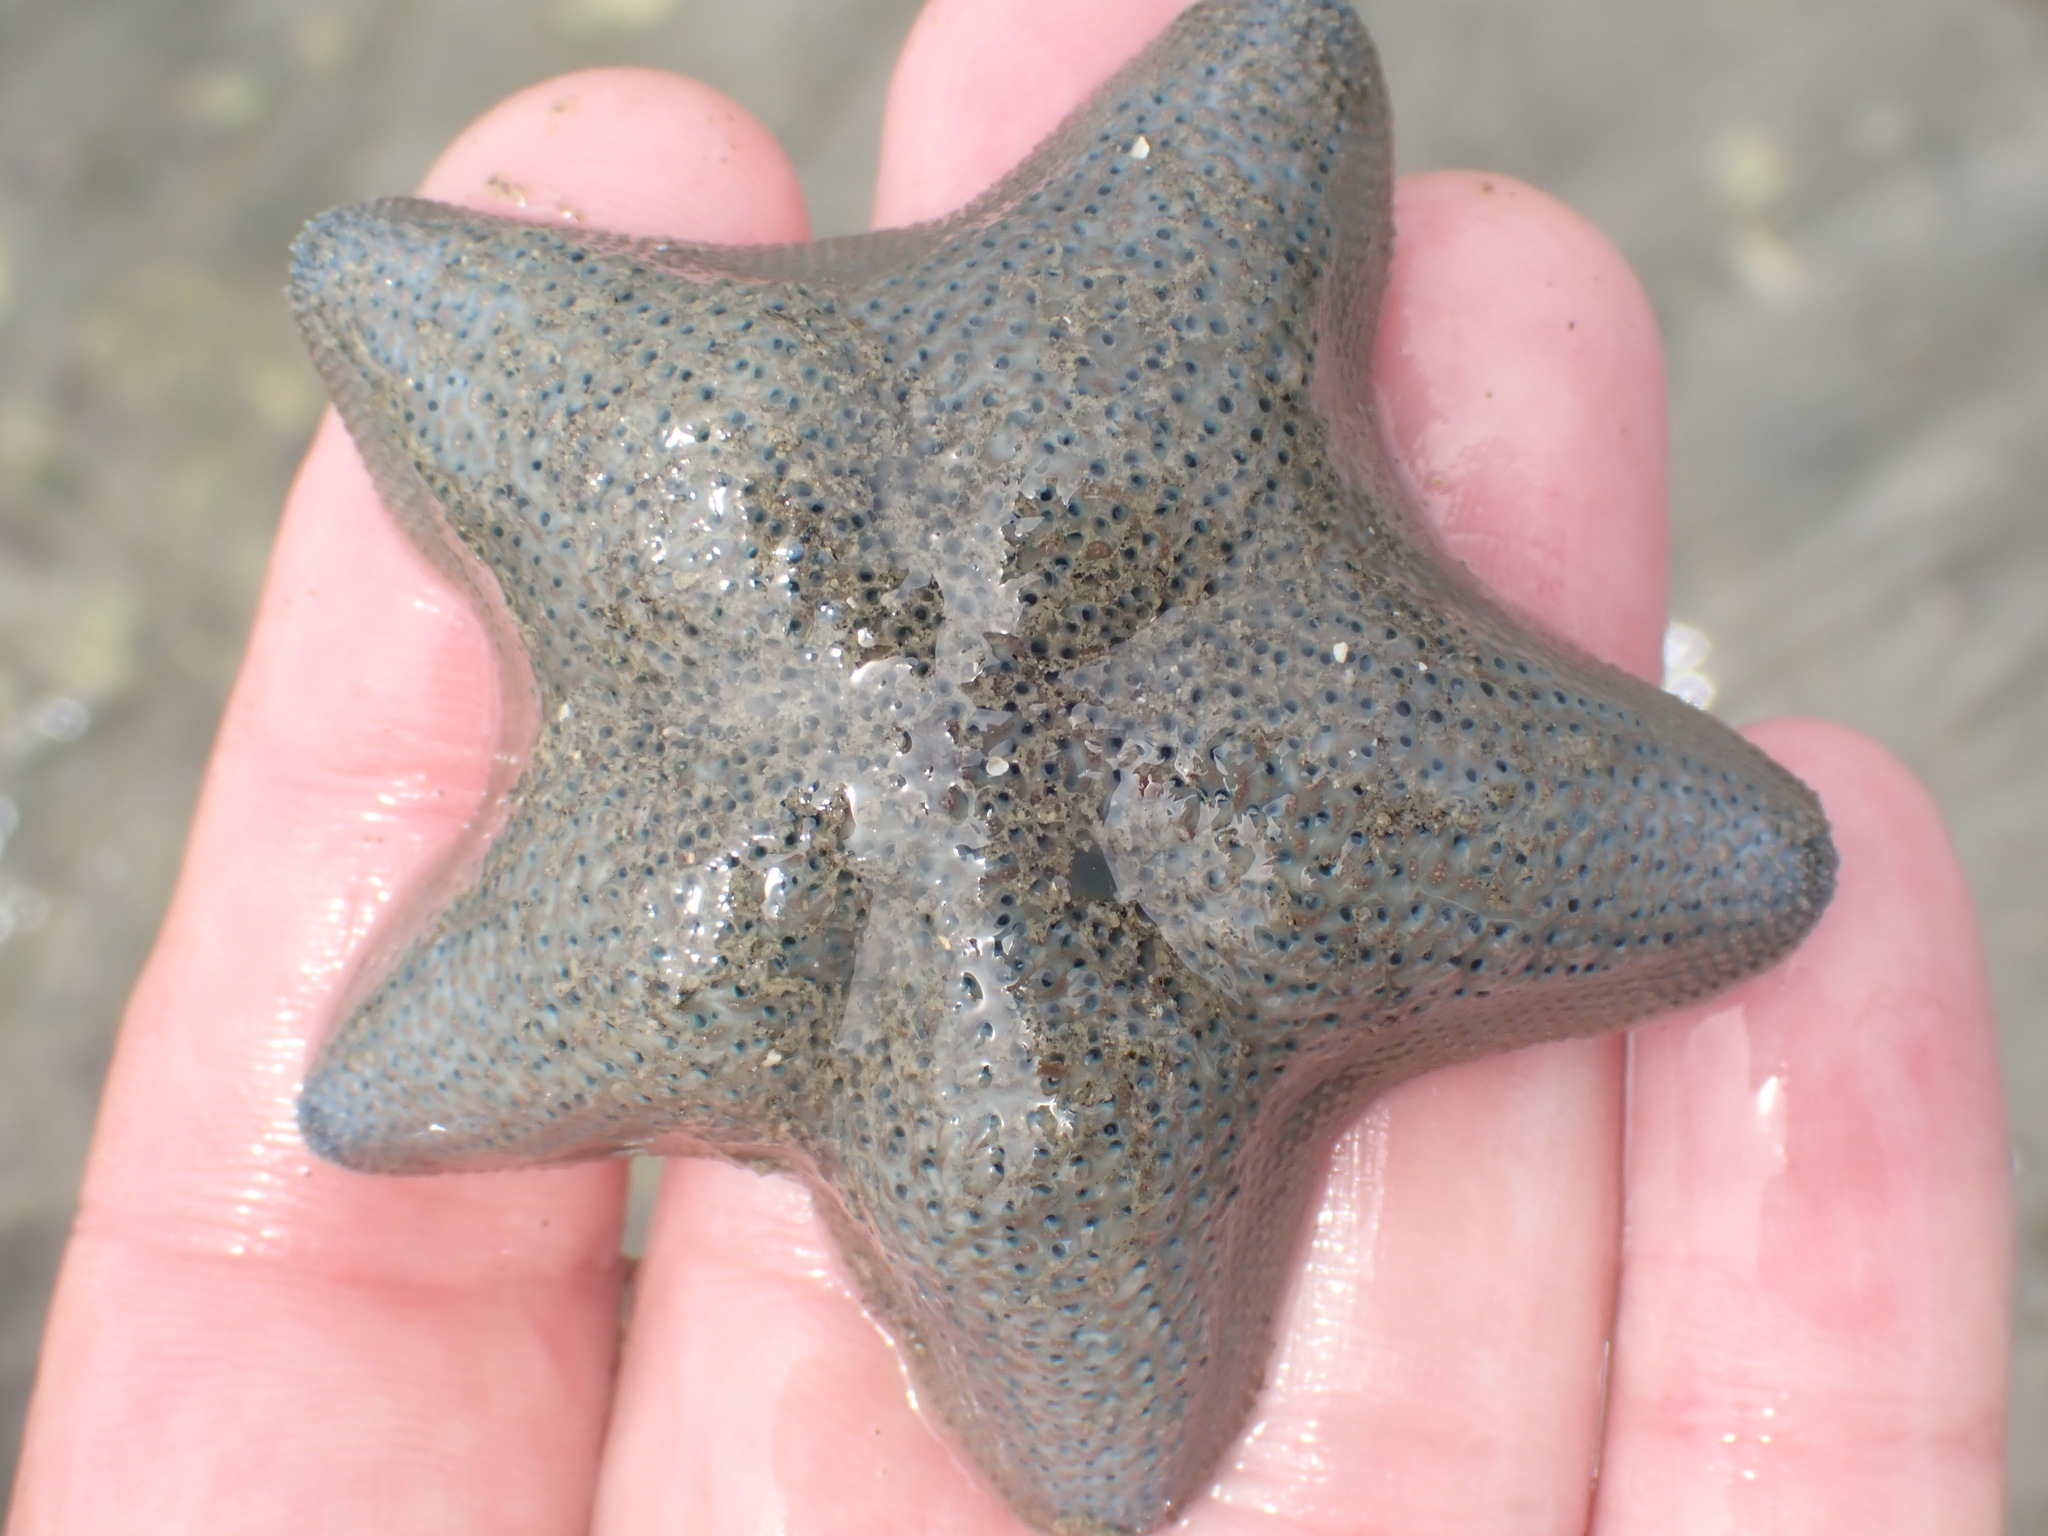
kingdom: Animalia
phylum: Echinodermata
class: Asteroidea
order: Valvatida
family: Asterinidae
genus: Patiriella
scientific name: Patiriella regularis
